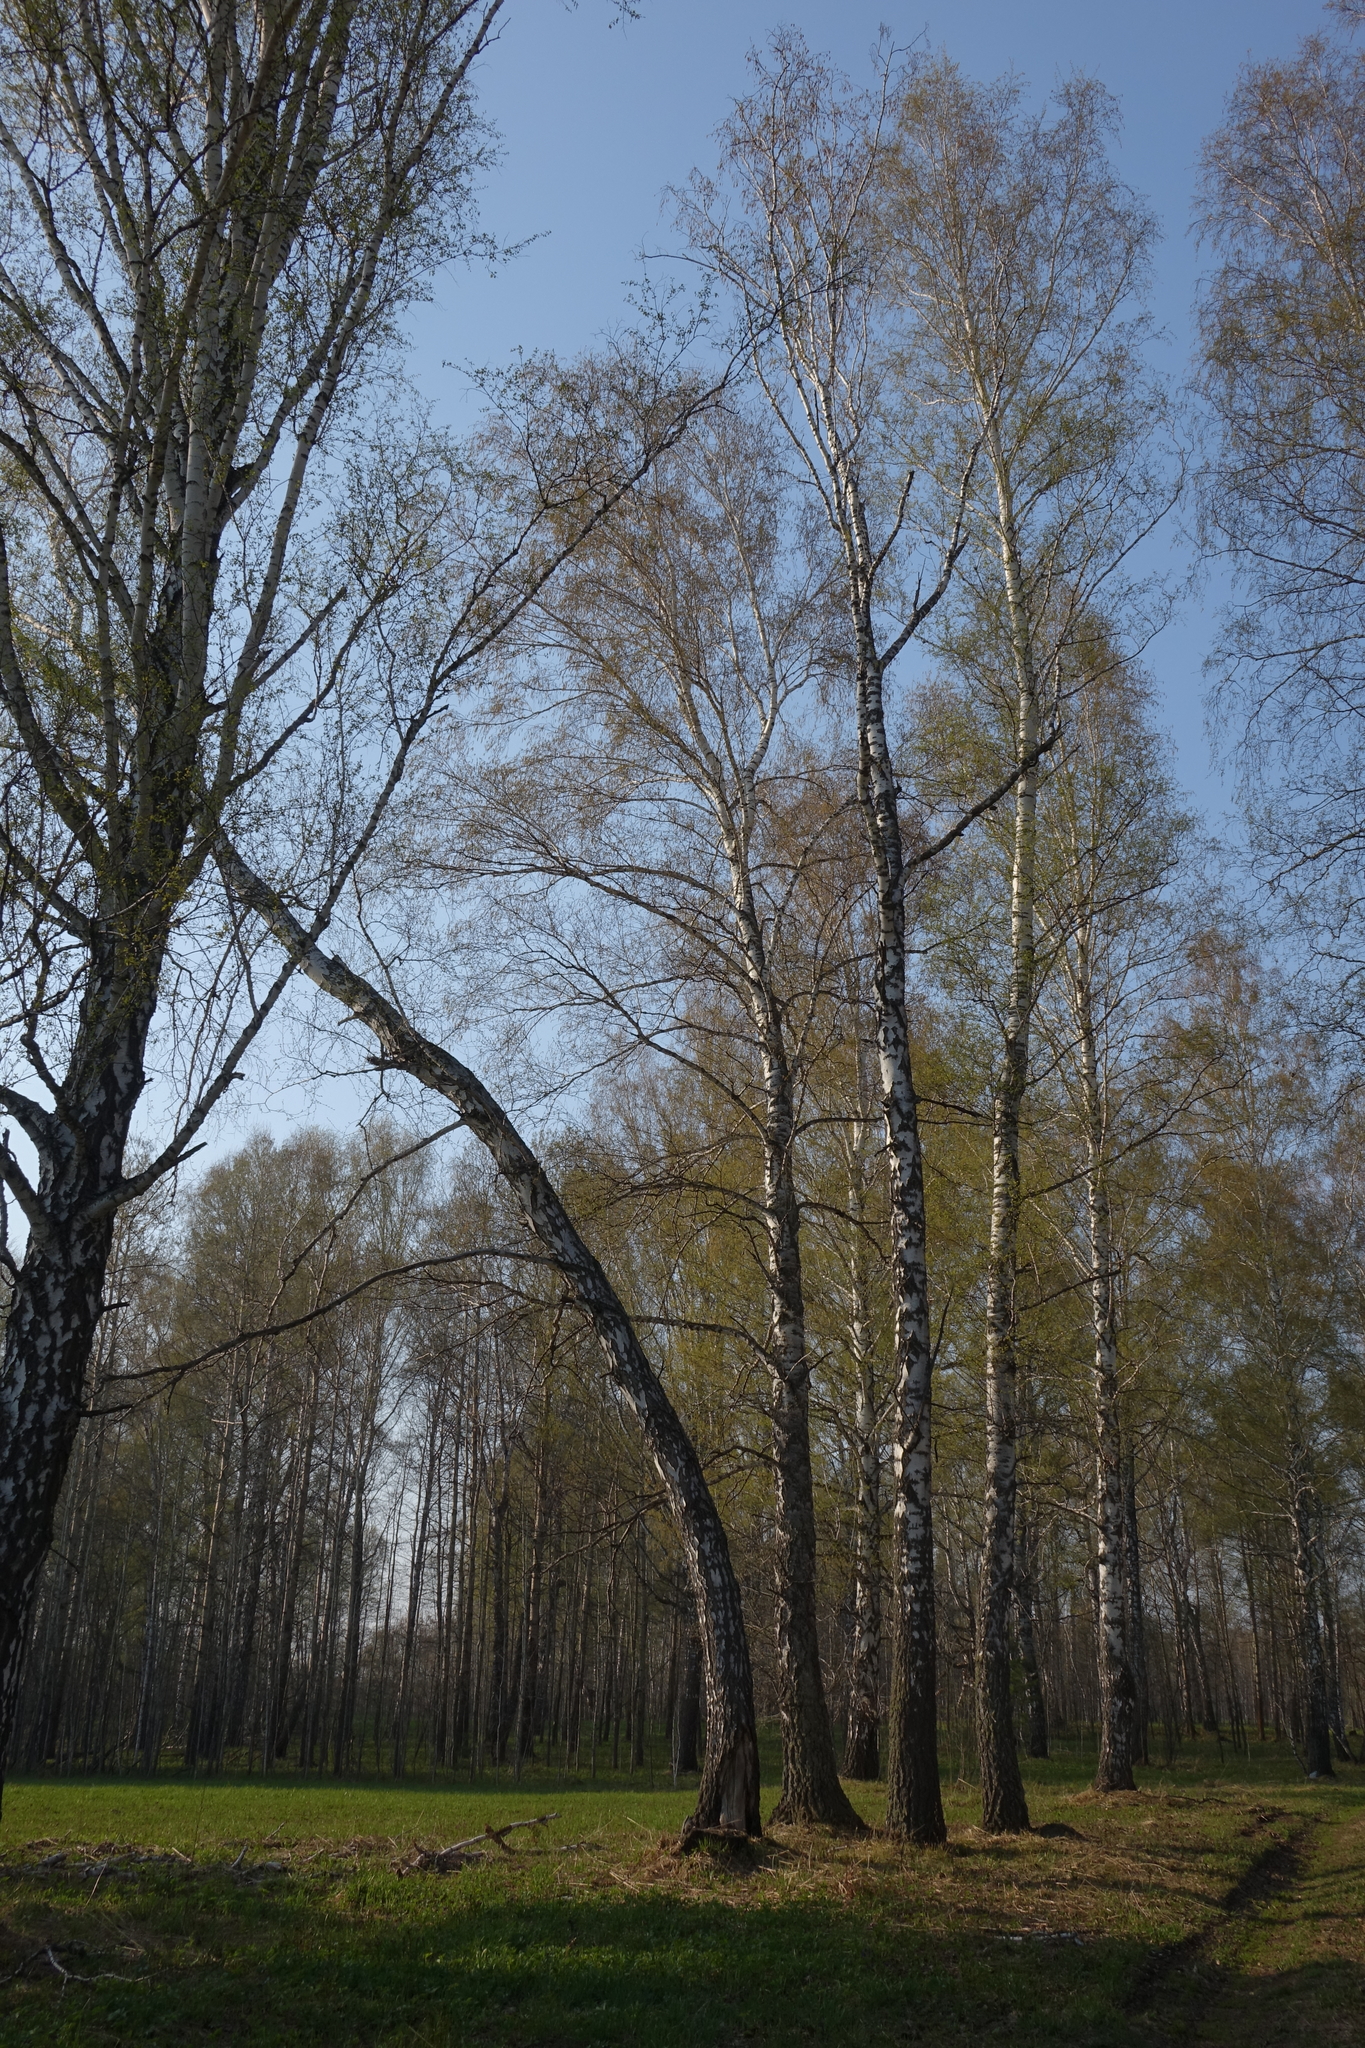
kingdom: Plantae
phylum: Tracheophyta
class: Magnoliopsida
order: Fagales
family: Betulaceae
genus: Betula
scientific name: Betula pendula
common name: Silver birch
